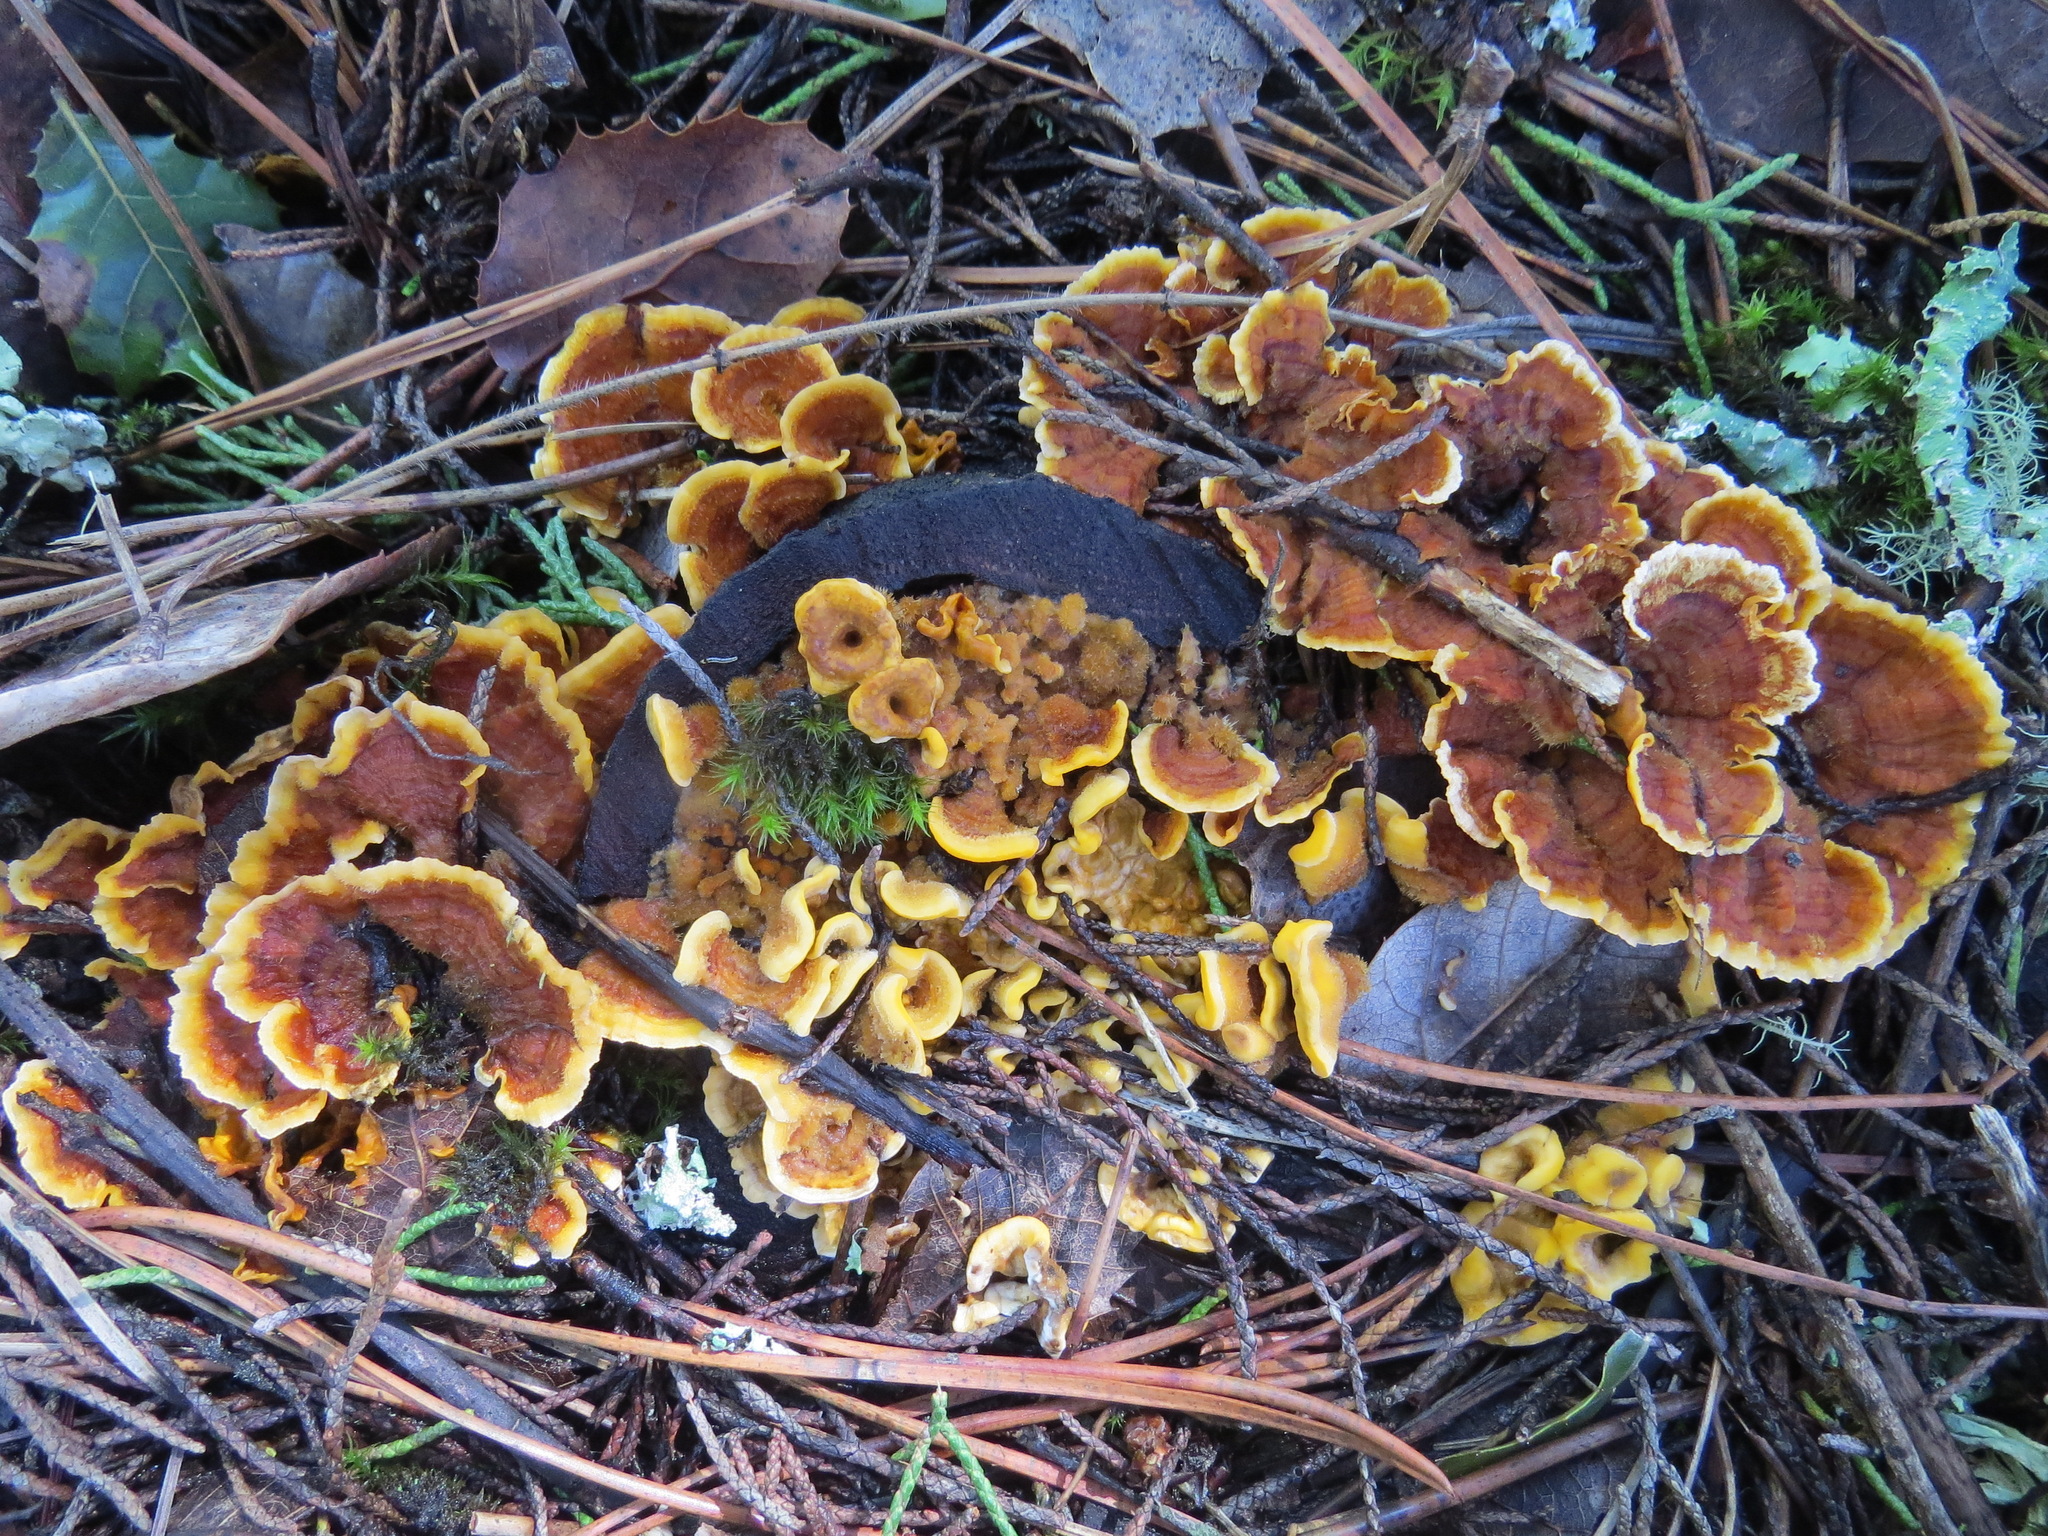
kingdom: Fungi
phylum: Basidiomycota
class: Agaricomycetes
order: Russulales
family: Stereaceae
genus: Stereum
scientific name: Stereum hirsutum
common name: Hairy curtain crust
